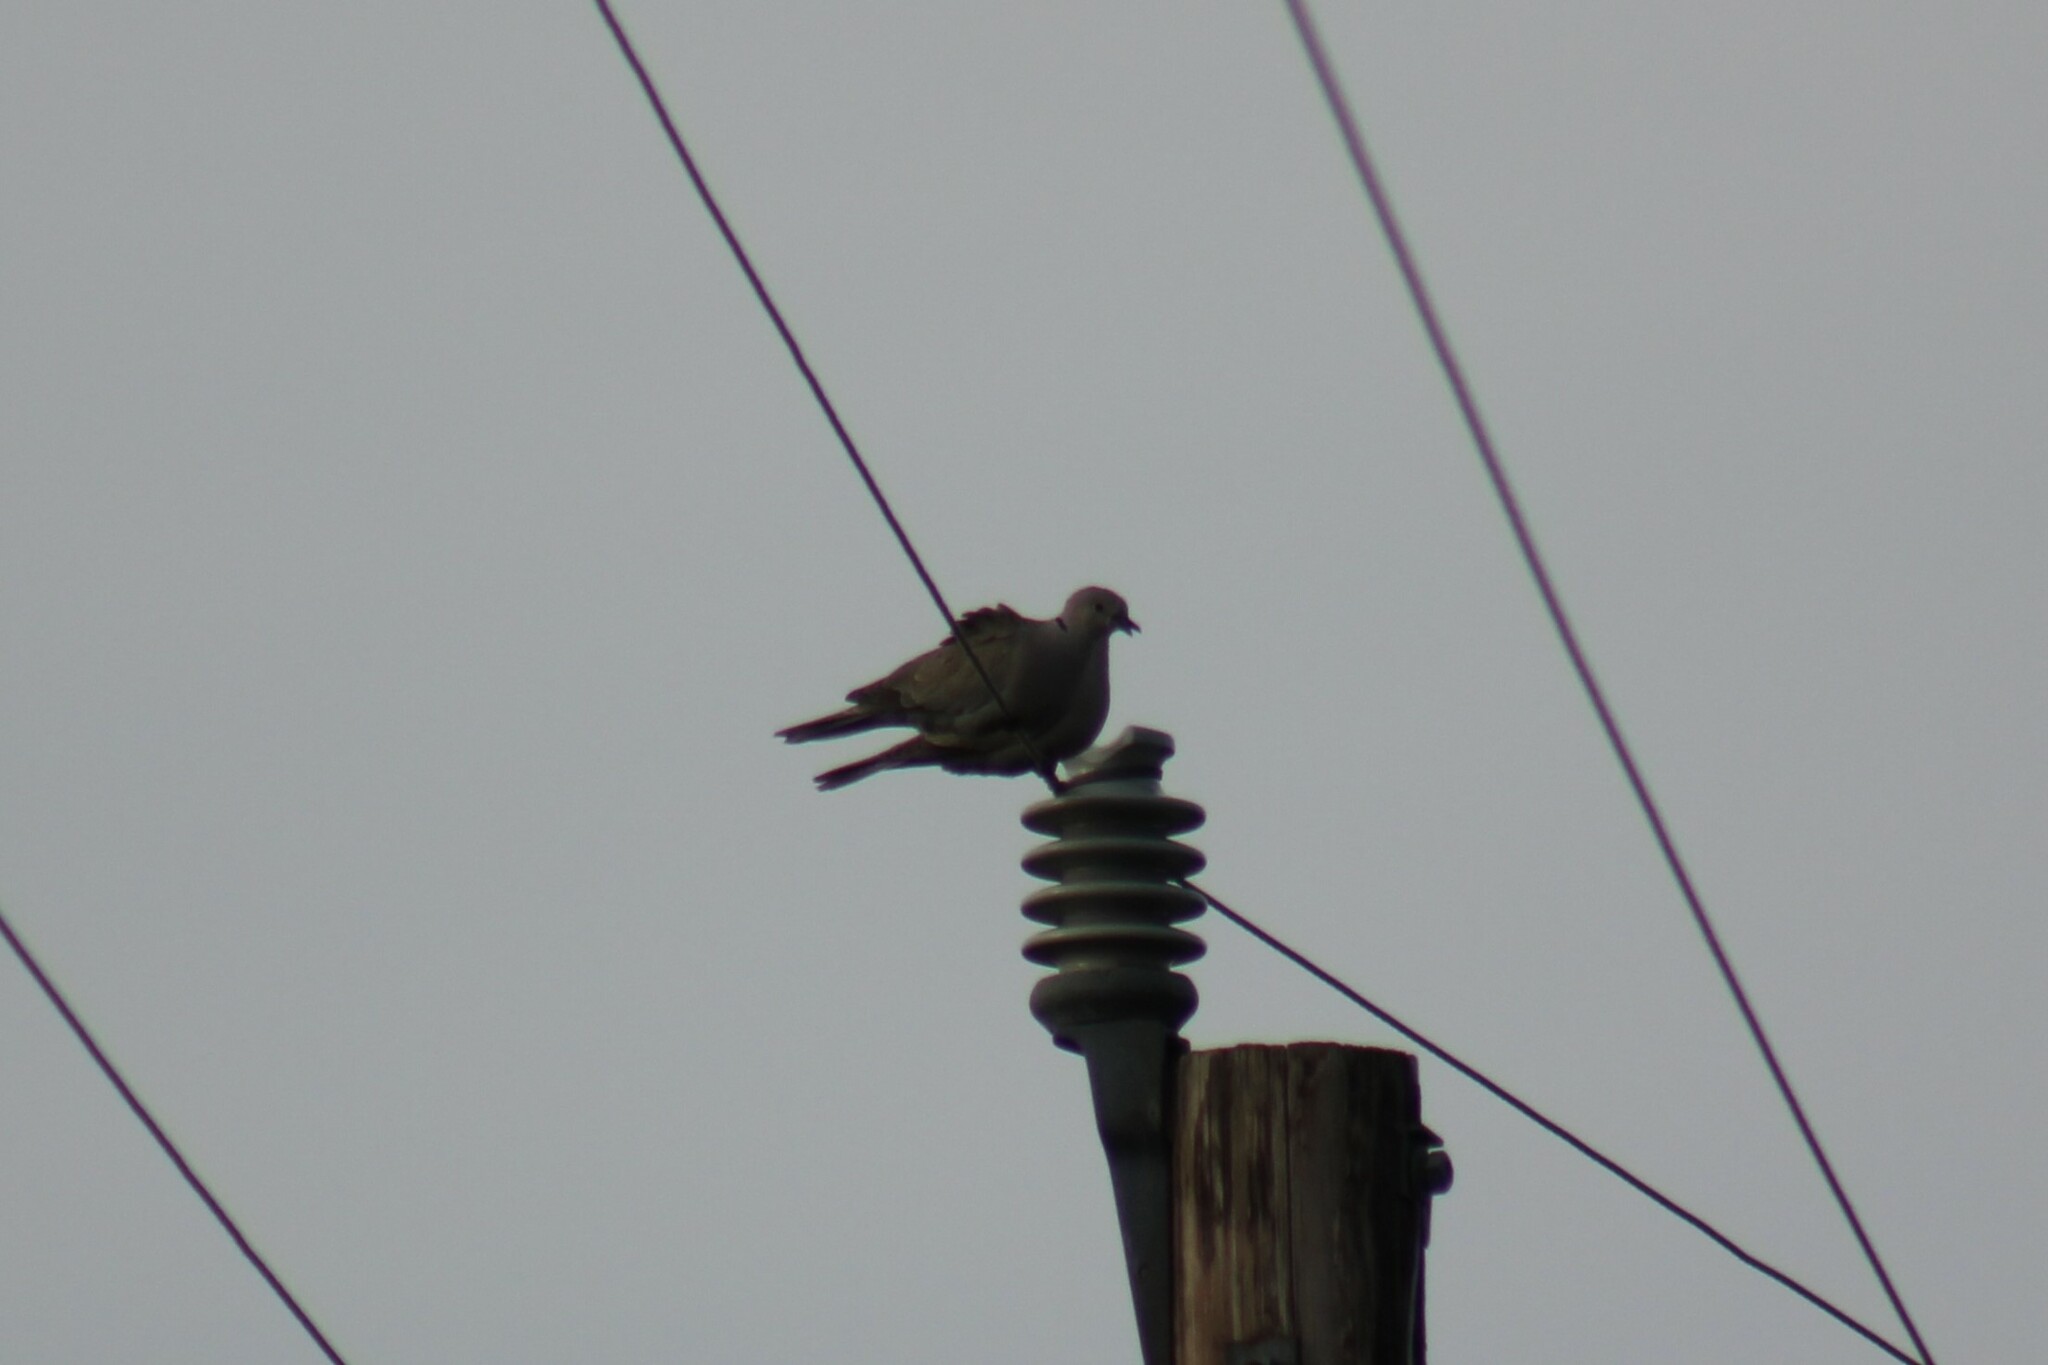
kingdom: Animalia
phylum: Chordata
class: Aves
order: Columbiformes
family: Columbidae
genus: Streptopelia
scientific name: Streptopelia decaocto
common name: Eurasian collared dove
